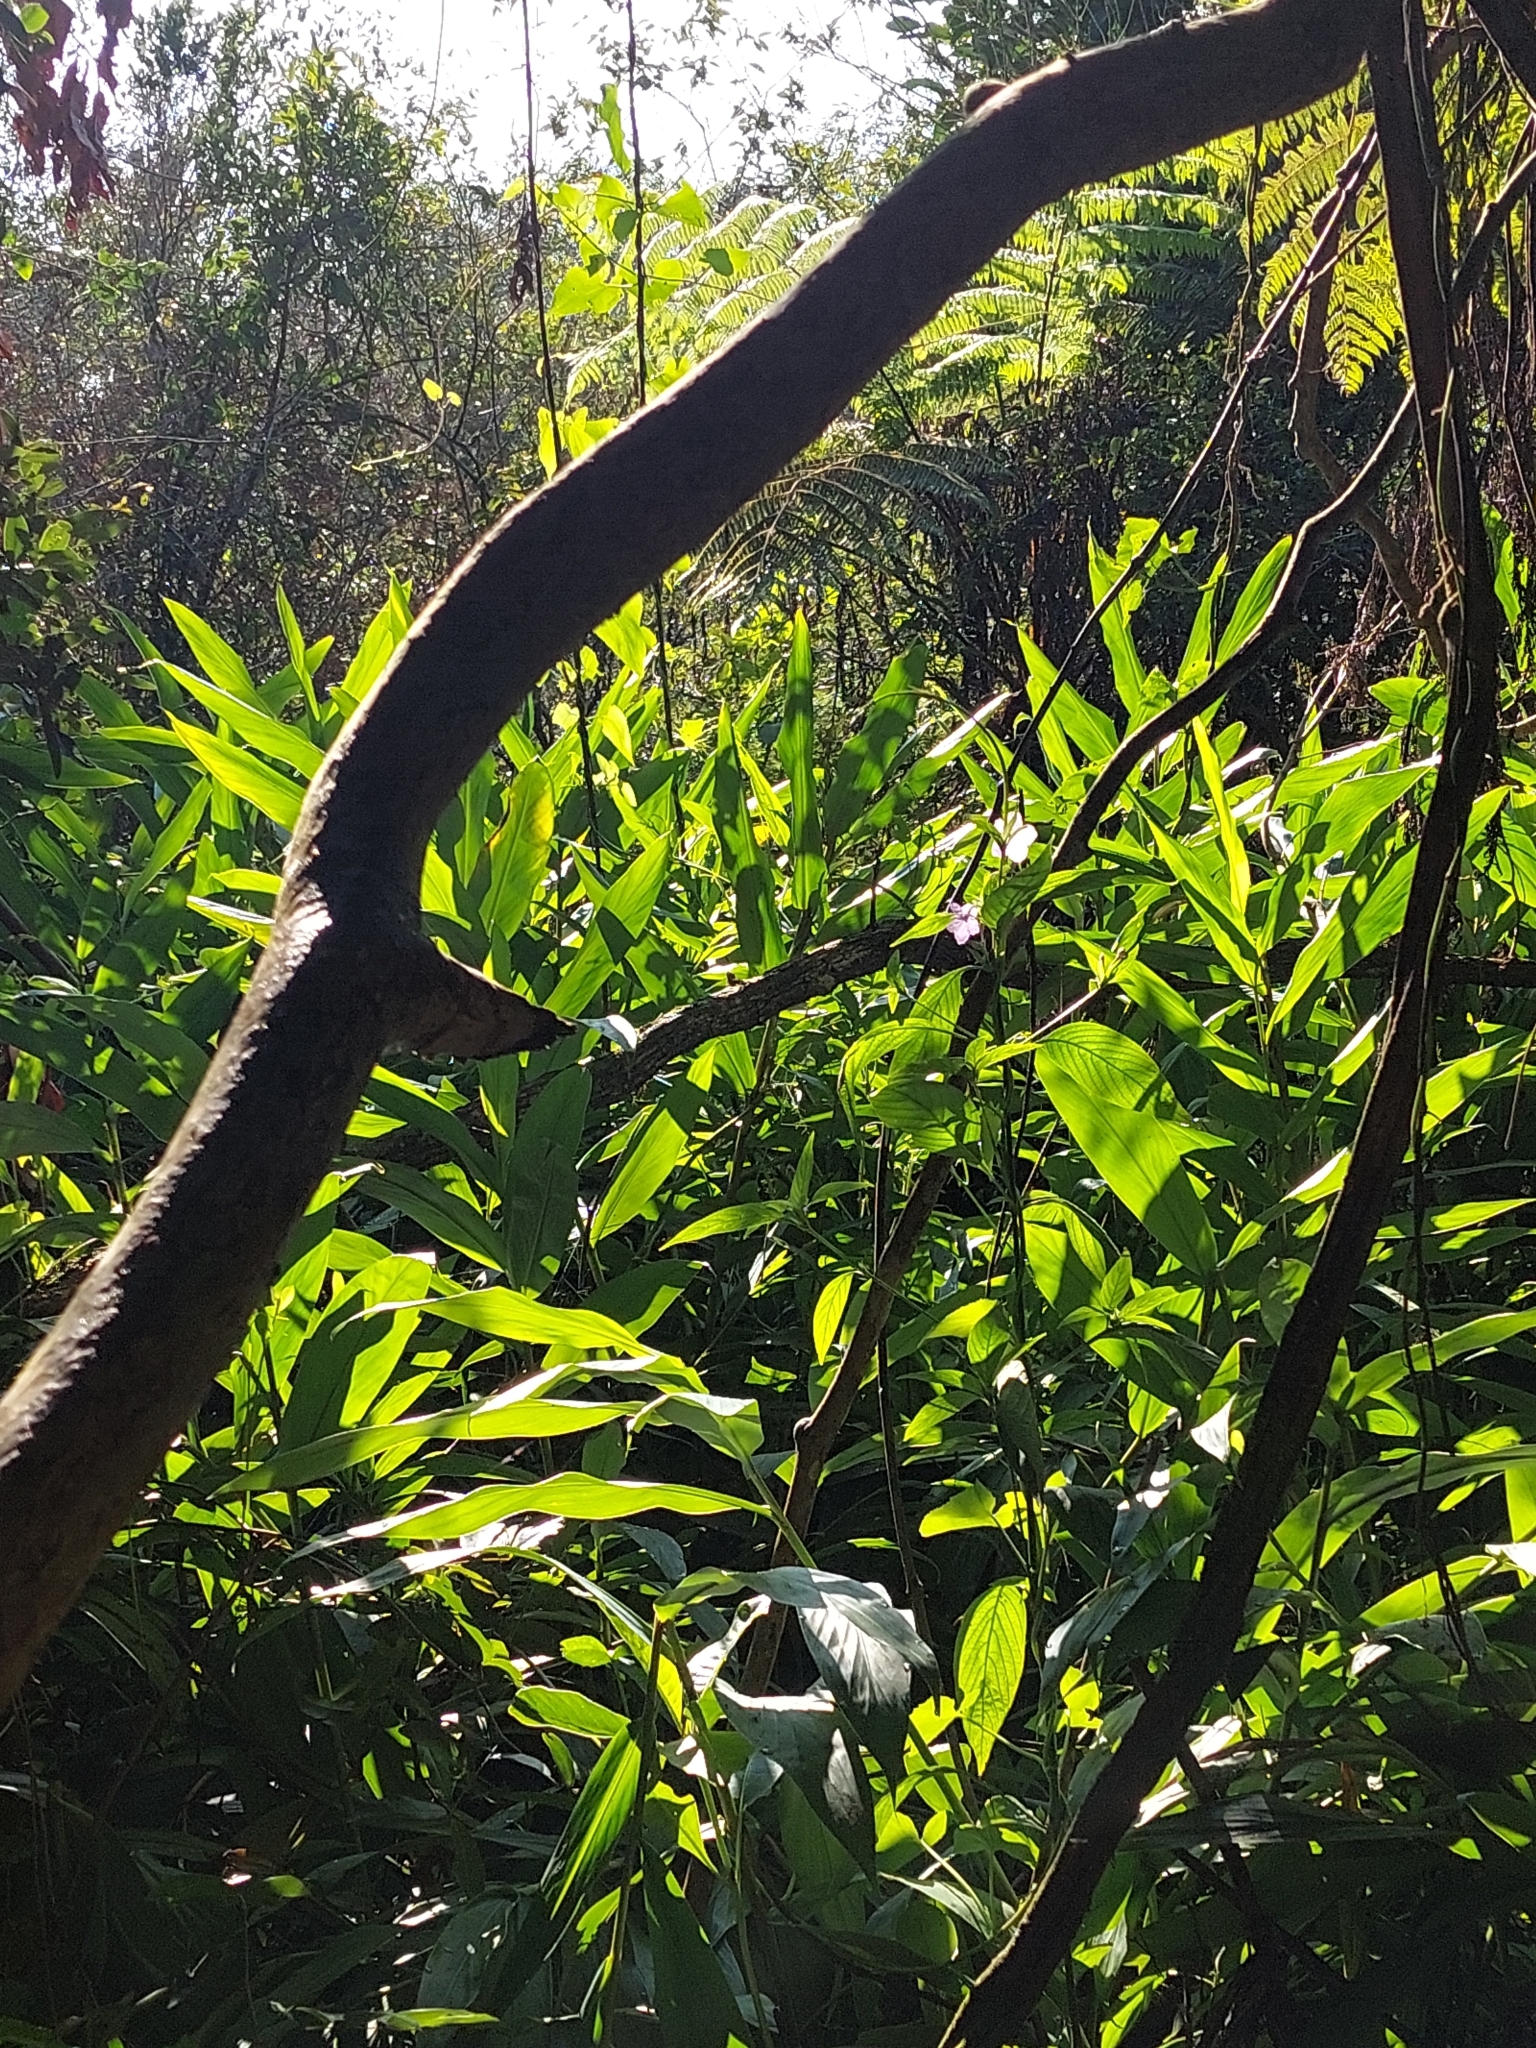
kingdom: Plantae
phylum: Tracheophyta
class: Liliopsida
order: Zingiberales
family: Zingiberaceae
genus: Hedychium
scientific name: Hedychium coronarium
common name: White garland-lily
